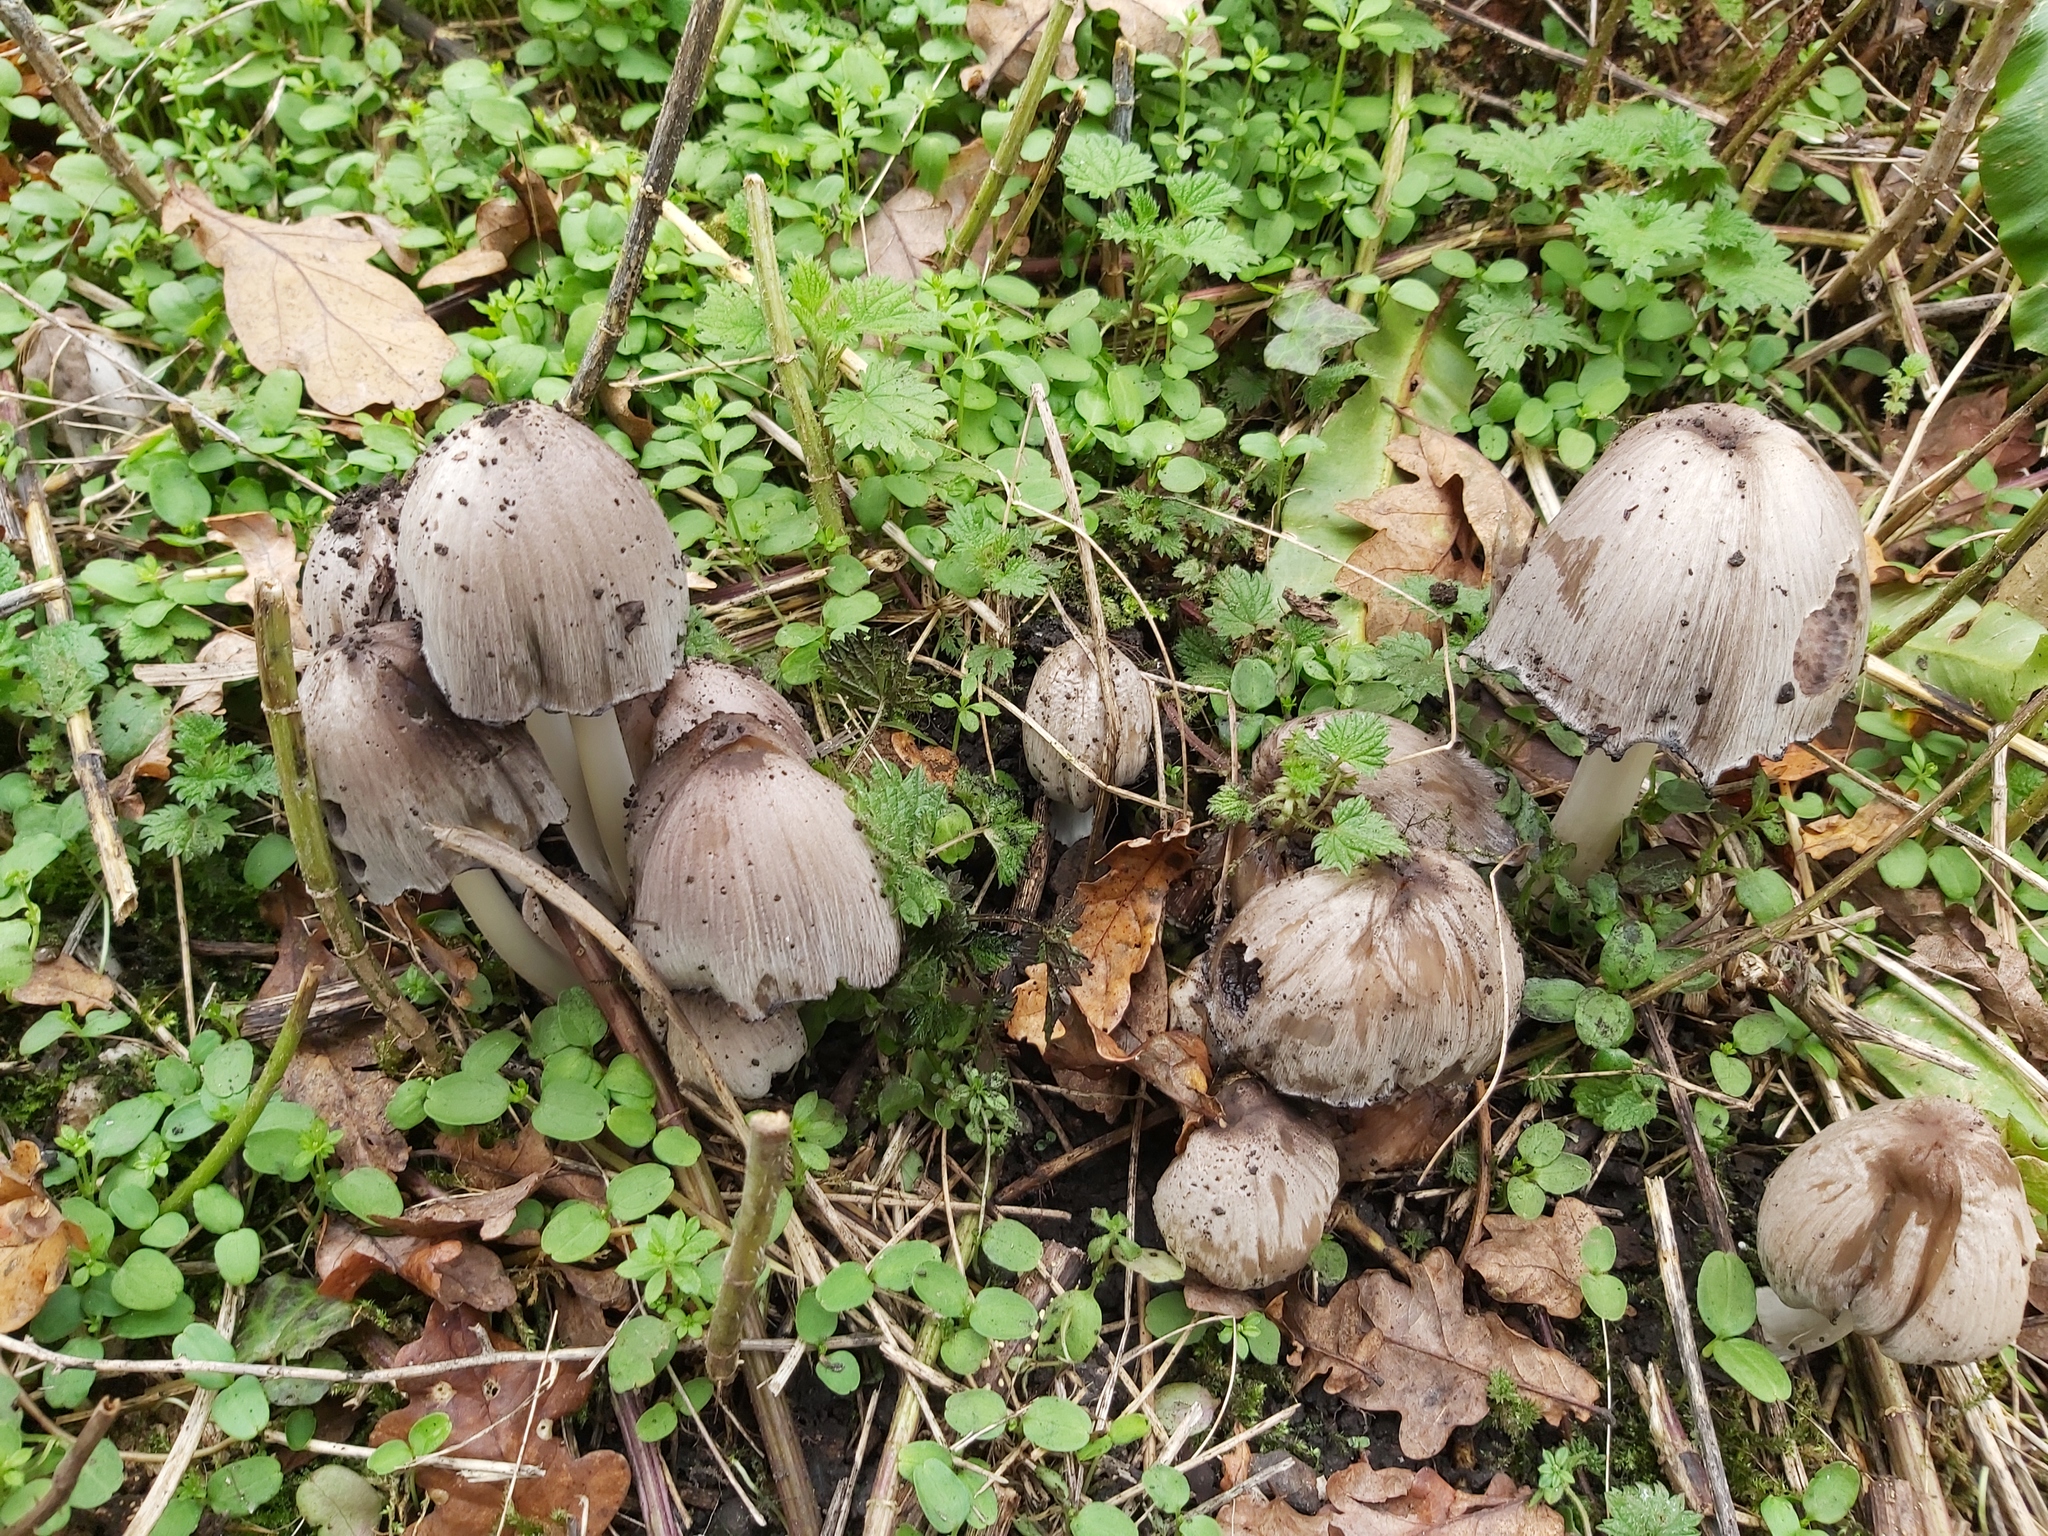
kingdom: Fungi
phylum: Basidiomycota
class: Agaricomycetes
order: Agaricales
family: Psathyrellaceae
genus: Coprinopsis
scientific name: Coprinopsis atramentaria
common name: Common ink-cap
